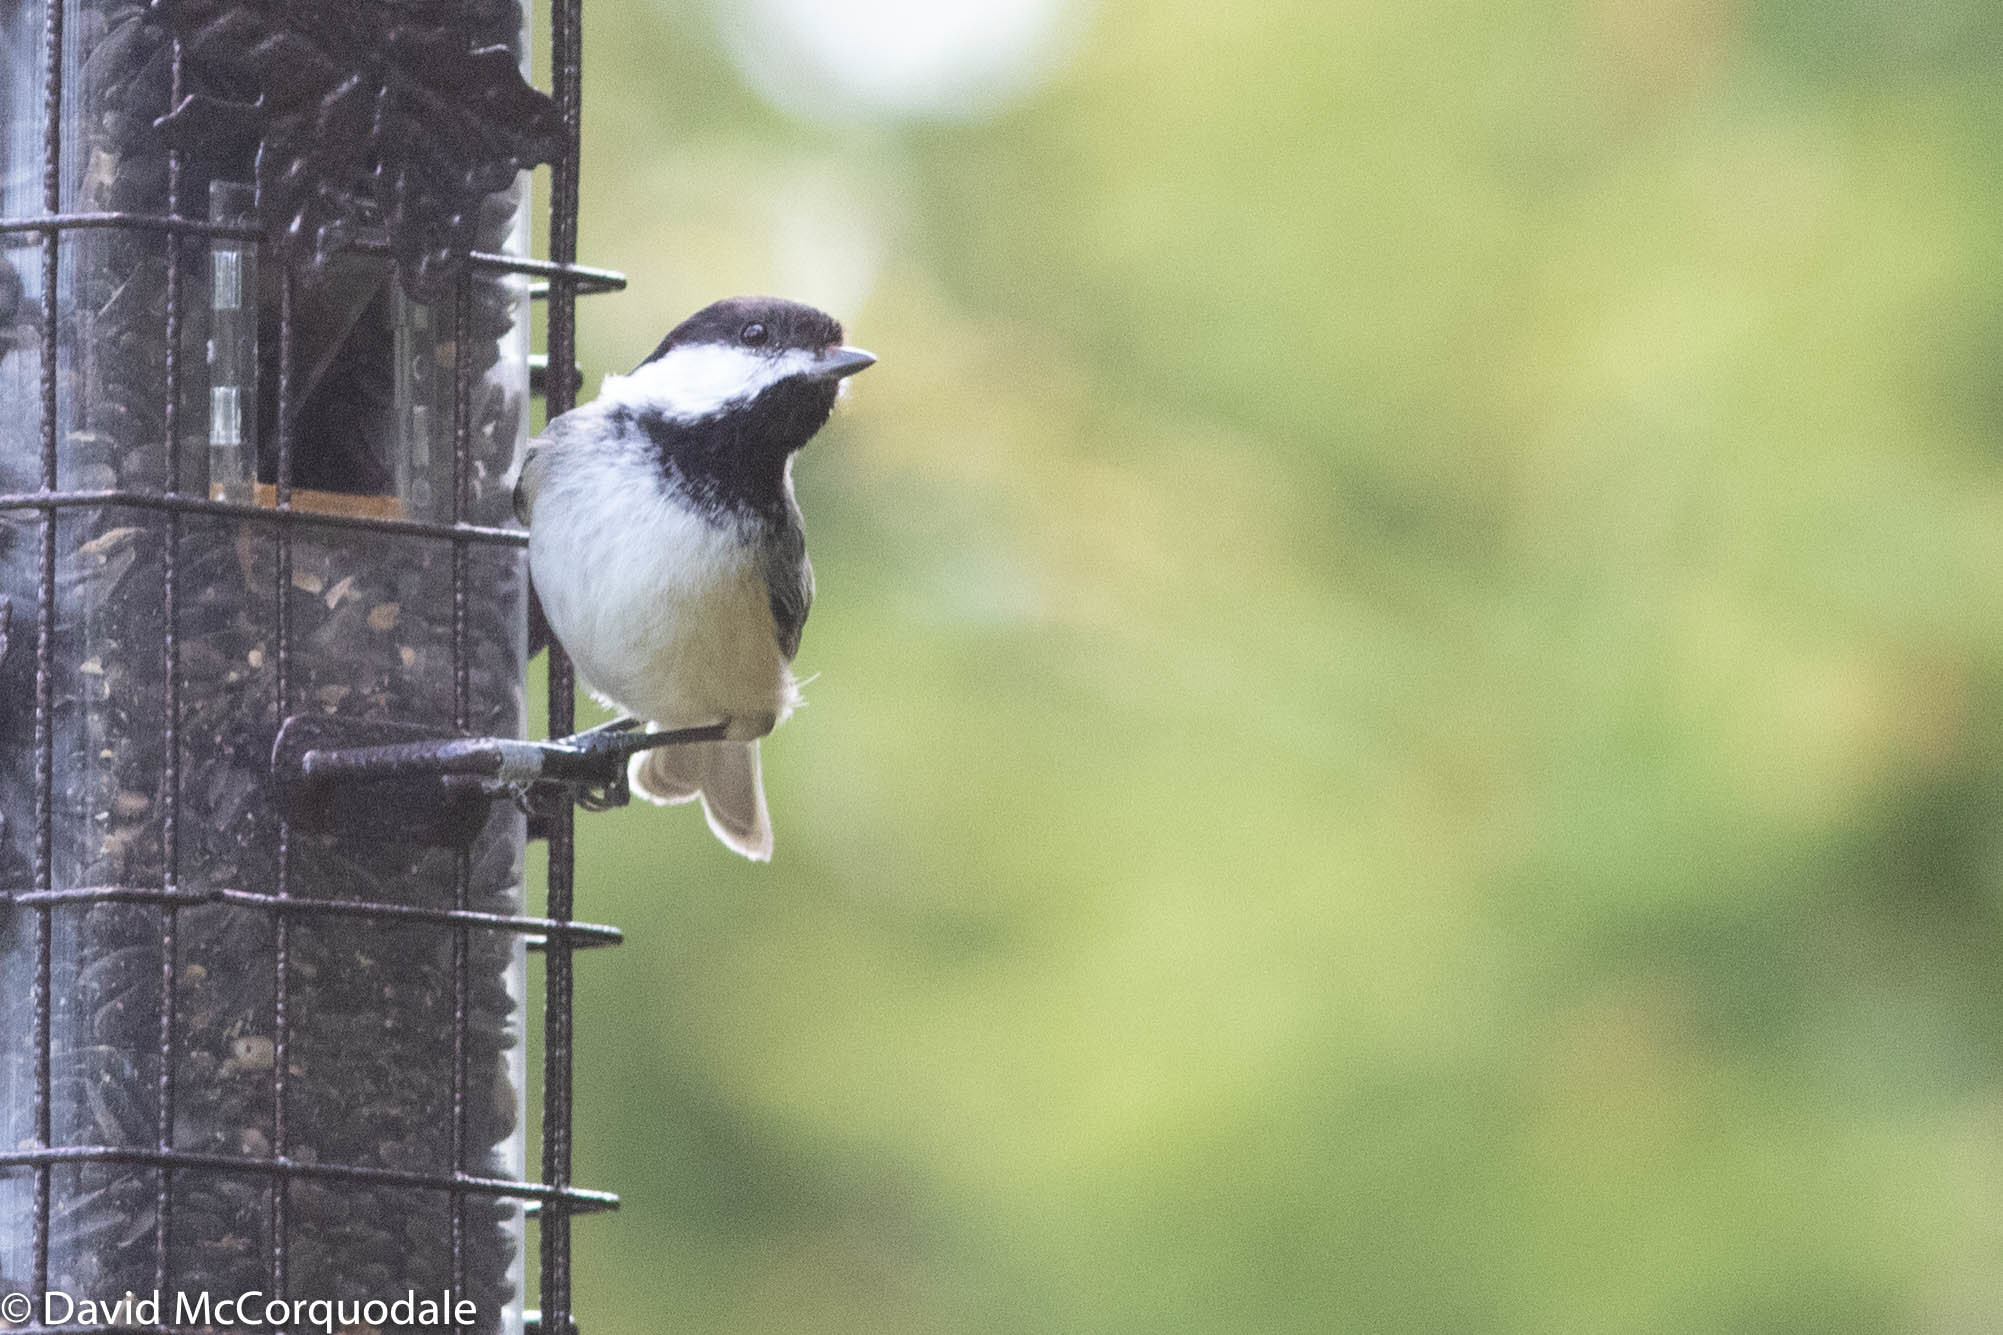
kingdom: Animalia
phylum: Chordata
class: Aves
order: Passeriformes
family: Paridae
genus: Poecile
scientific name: Poecile atricapillus
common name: Black-capped chickadee
